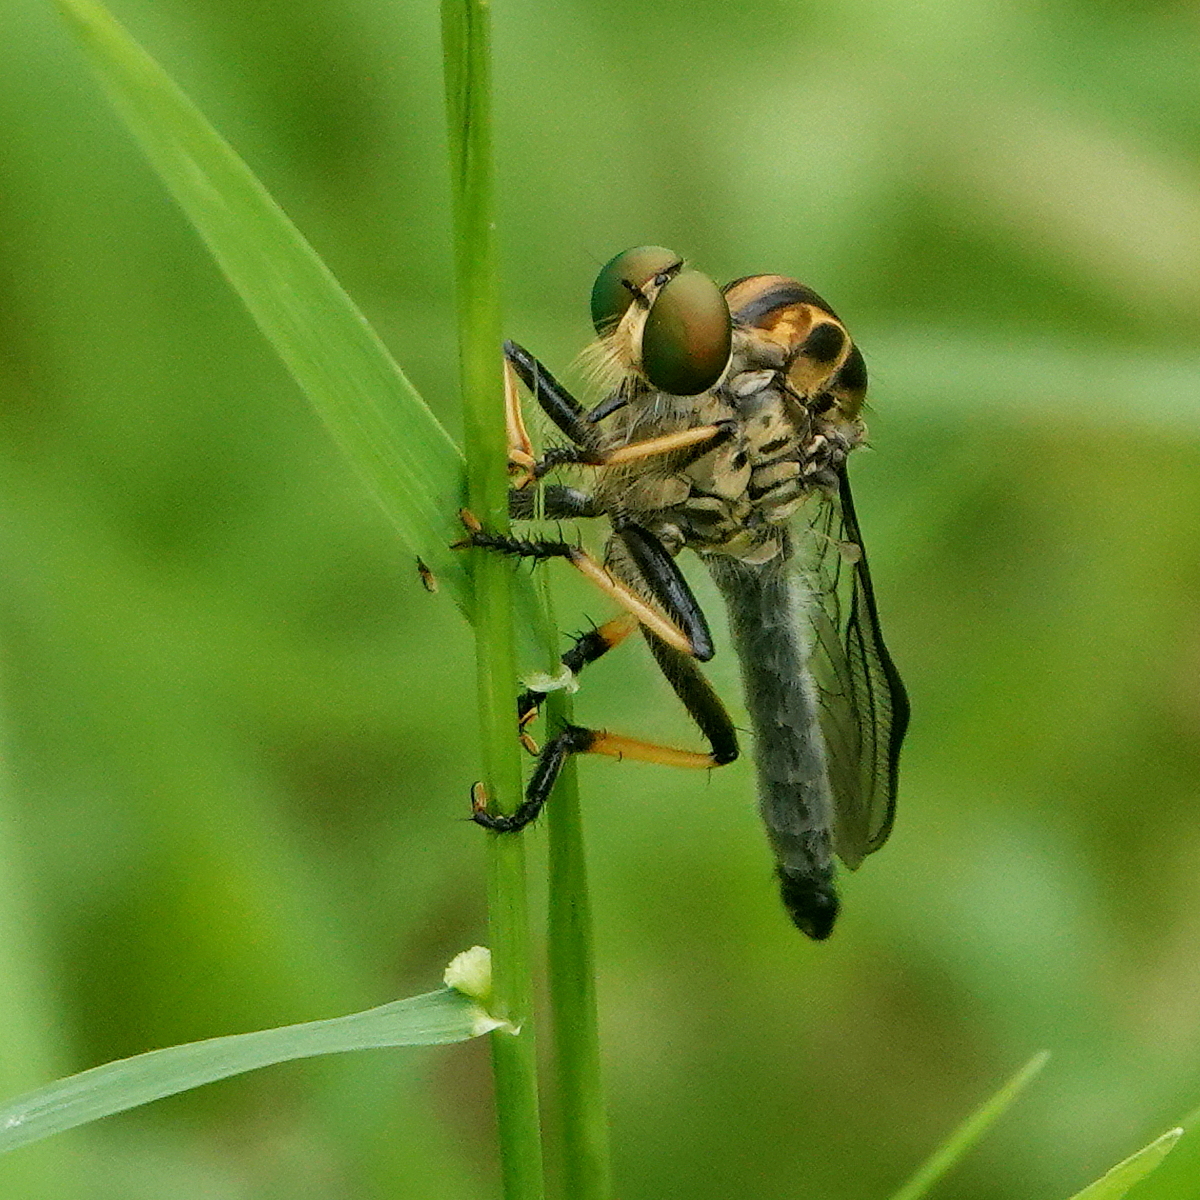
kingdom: Animalia
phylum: Arthropoda
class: Insecta
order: Diptera
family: Asilidae
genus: Ommatius
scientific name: Ommatius coeraebus
